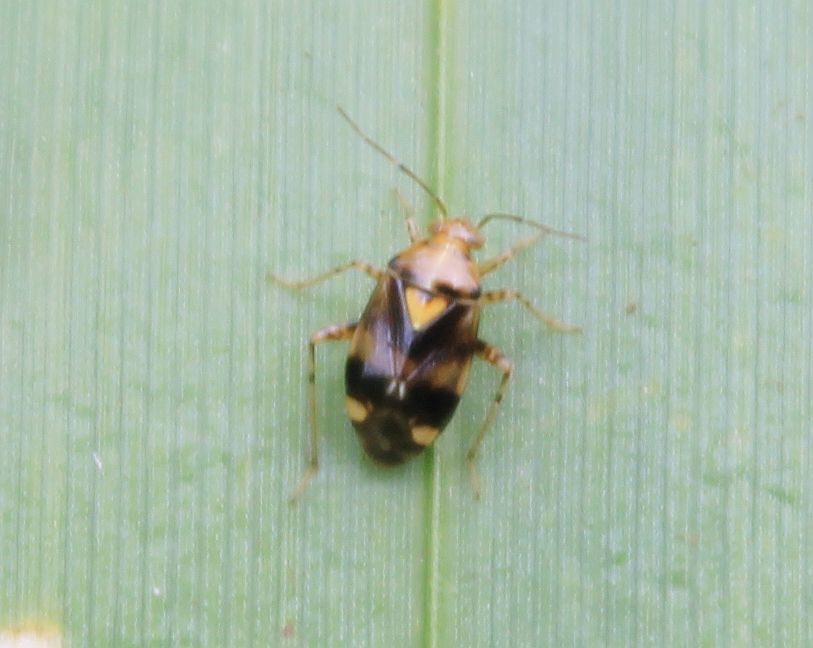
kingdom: Animalia
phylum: Arthropoda
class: Insecta
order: Hemiptera
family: Miridae
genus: Liocoris
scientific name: Liocoris tripustulatus
